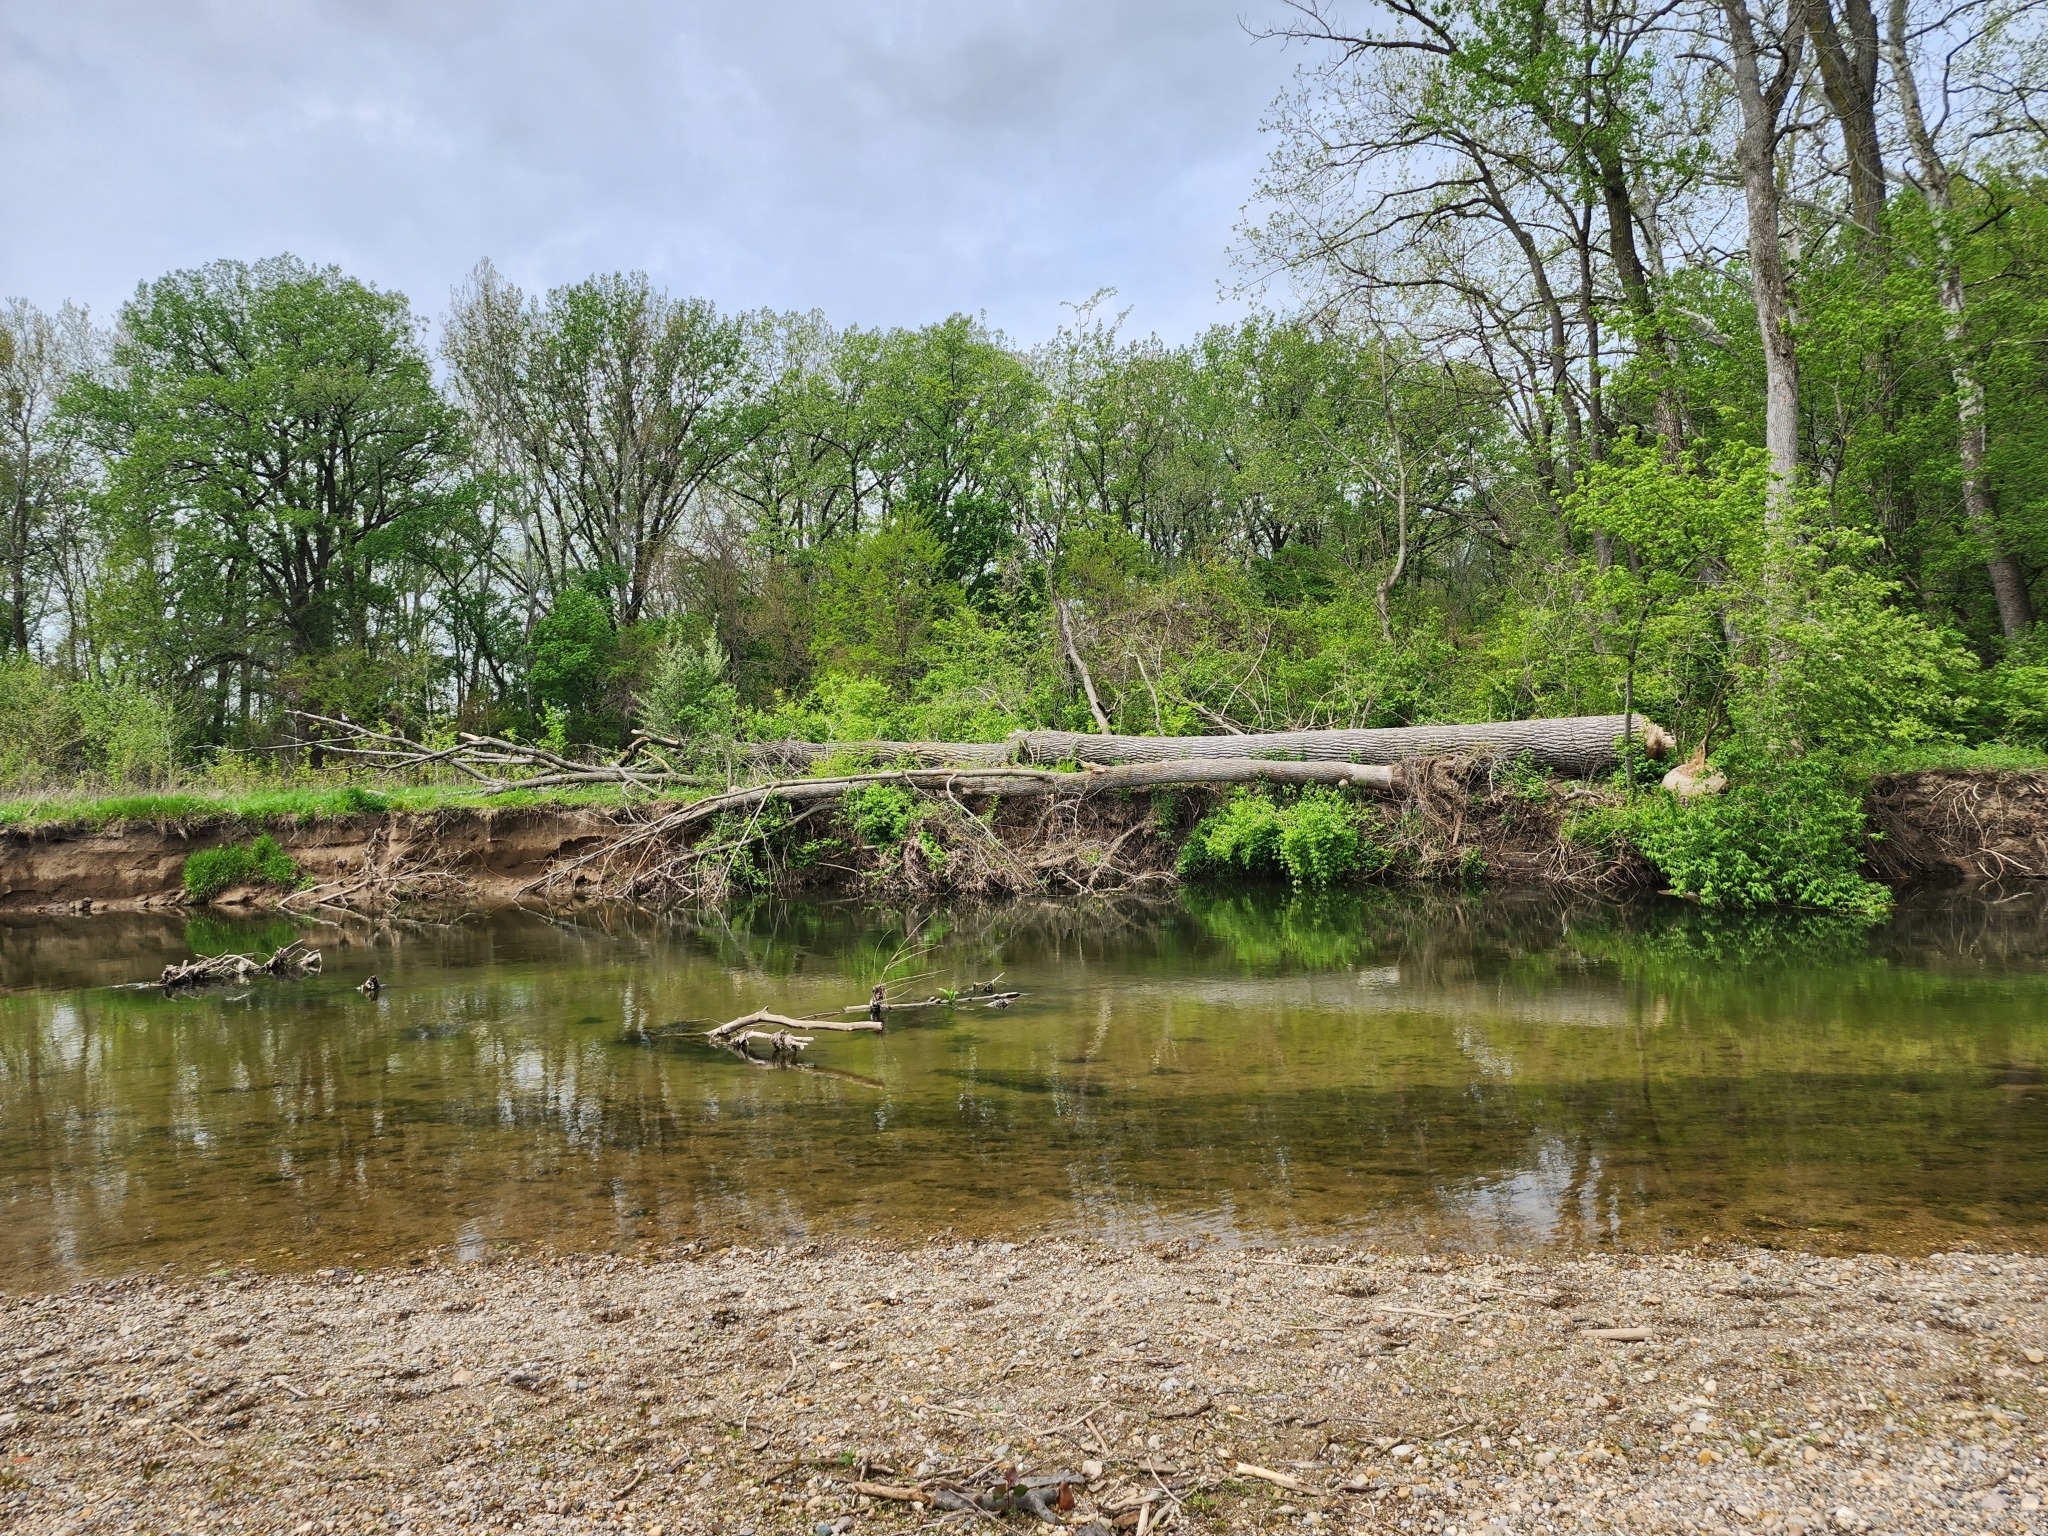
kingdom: Animalia
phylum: Chordata
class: Mammalia
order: Rodentia
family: Castoridae
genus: Castor
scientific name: Castor canadensis
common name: American beaver
